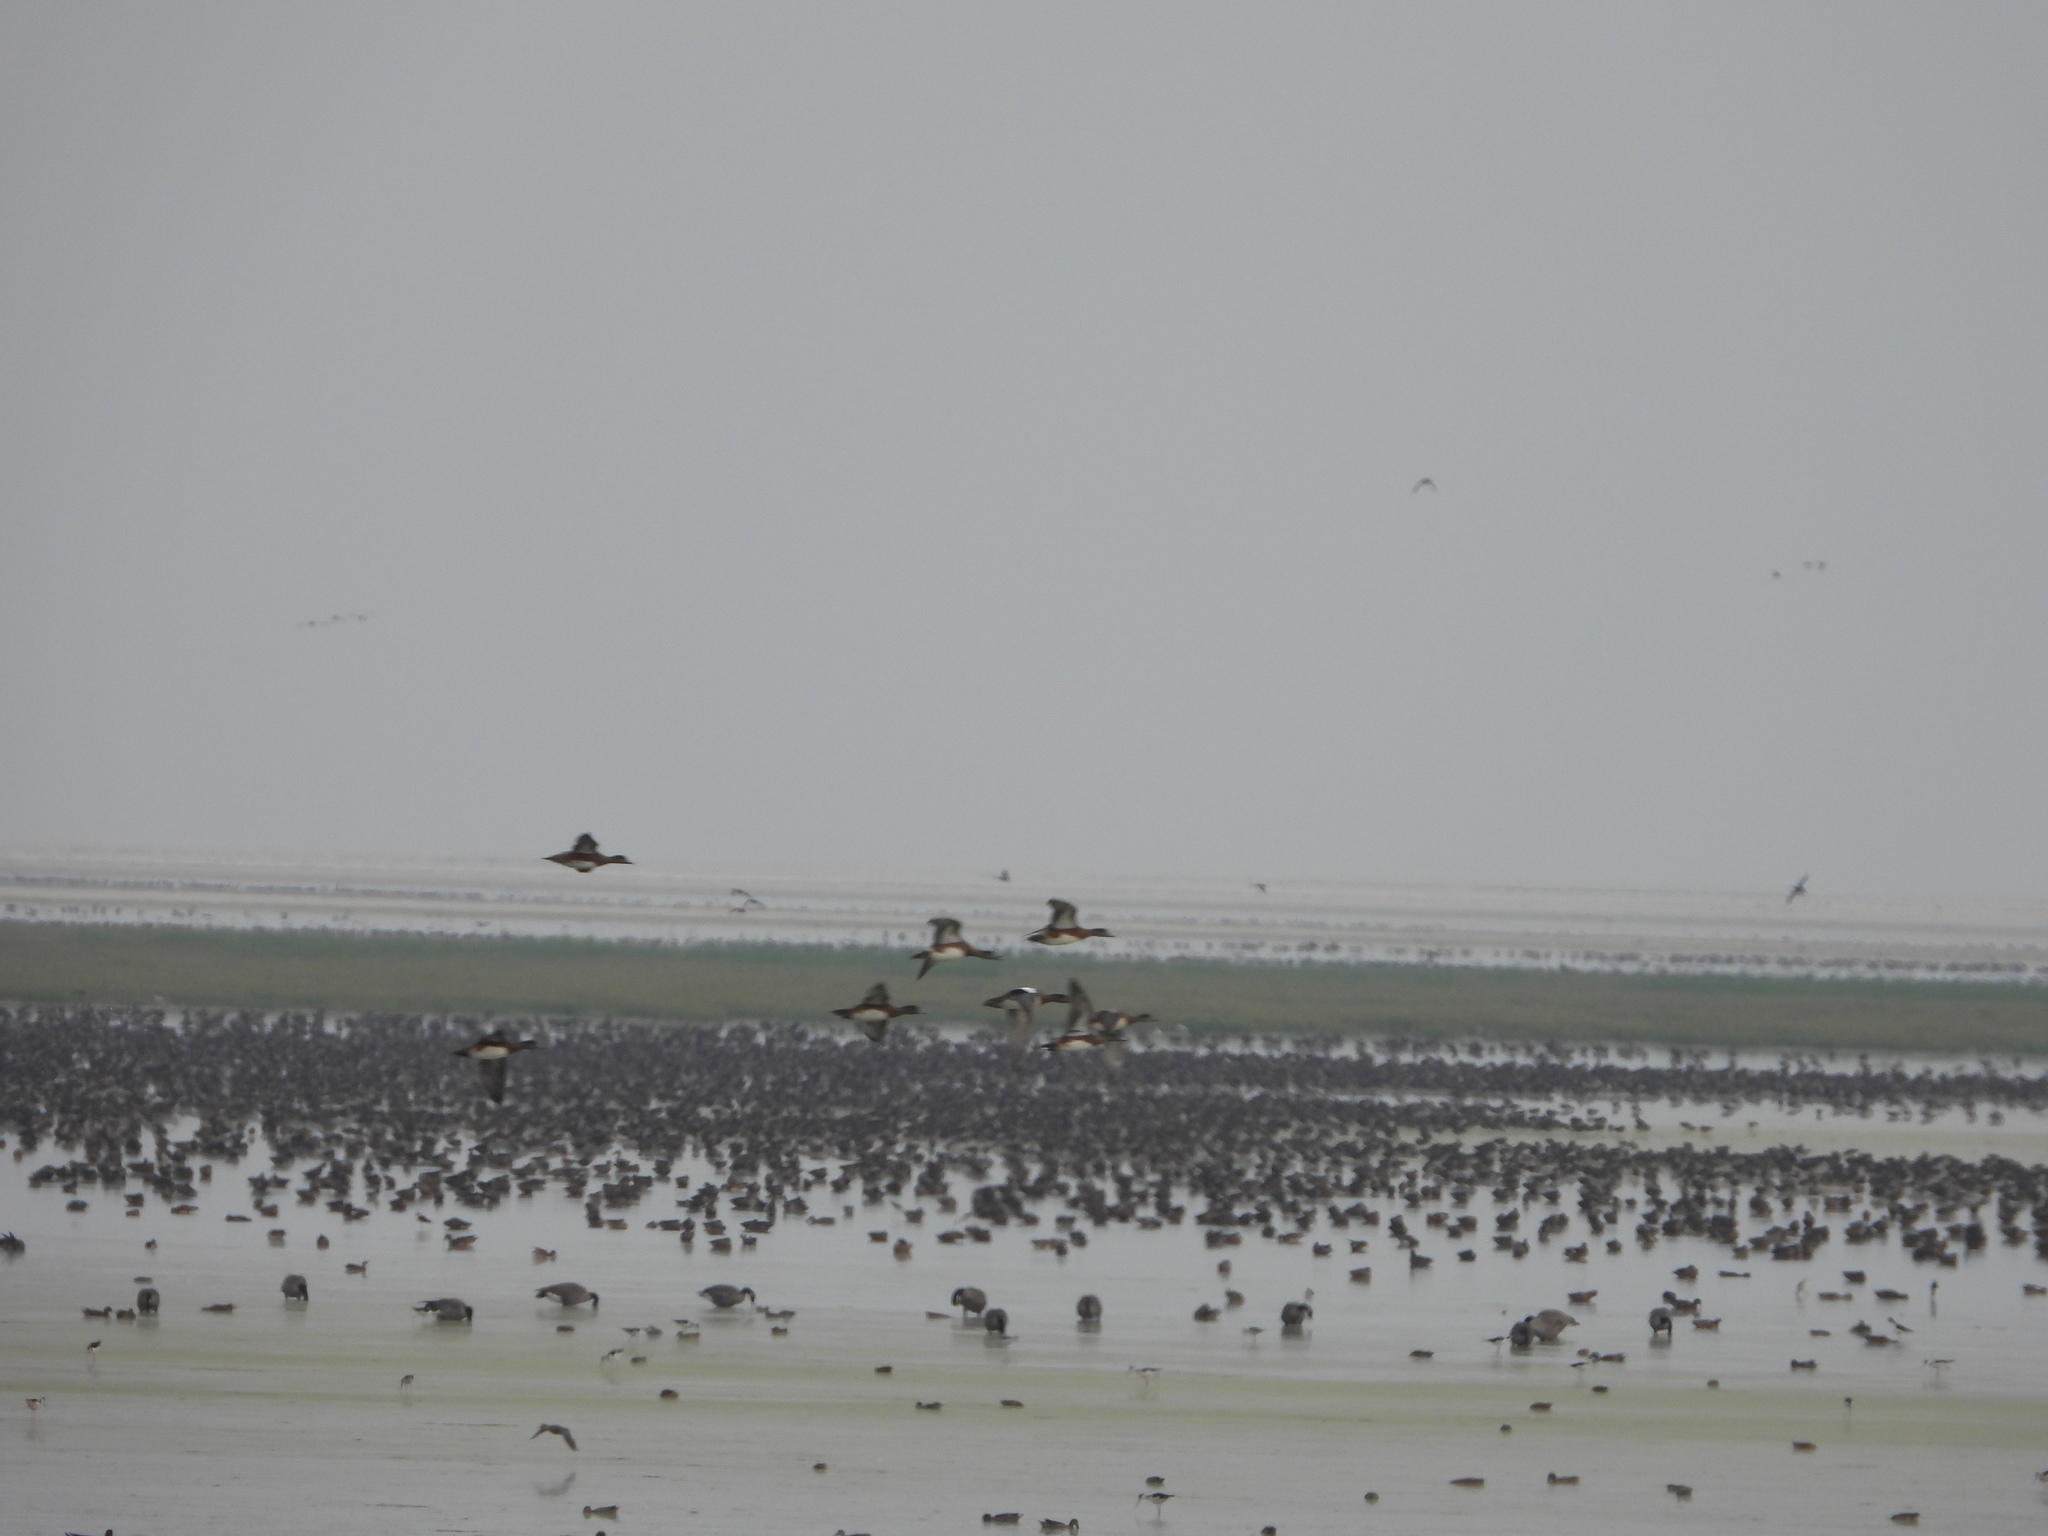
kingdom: Animalia
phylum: Chordata
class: Aves
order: Anseriformes
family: Anatidae
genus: Mareca
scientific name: Mareca americana
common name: American wigeon
